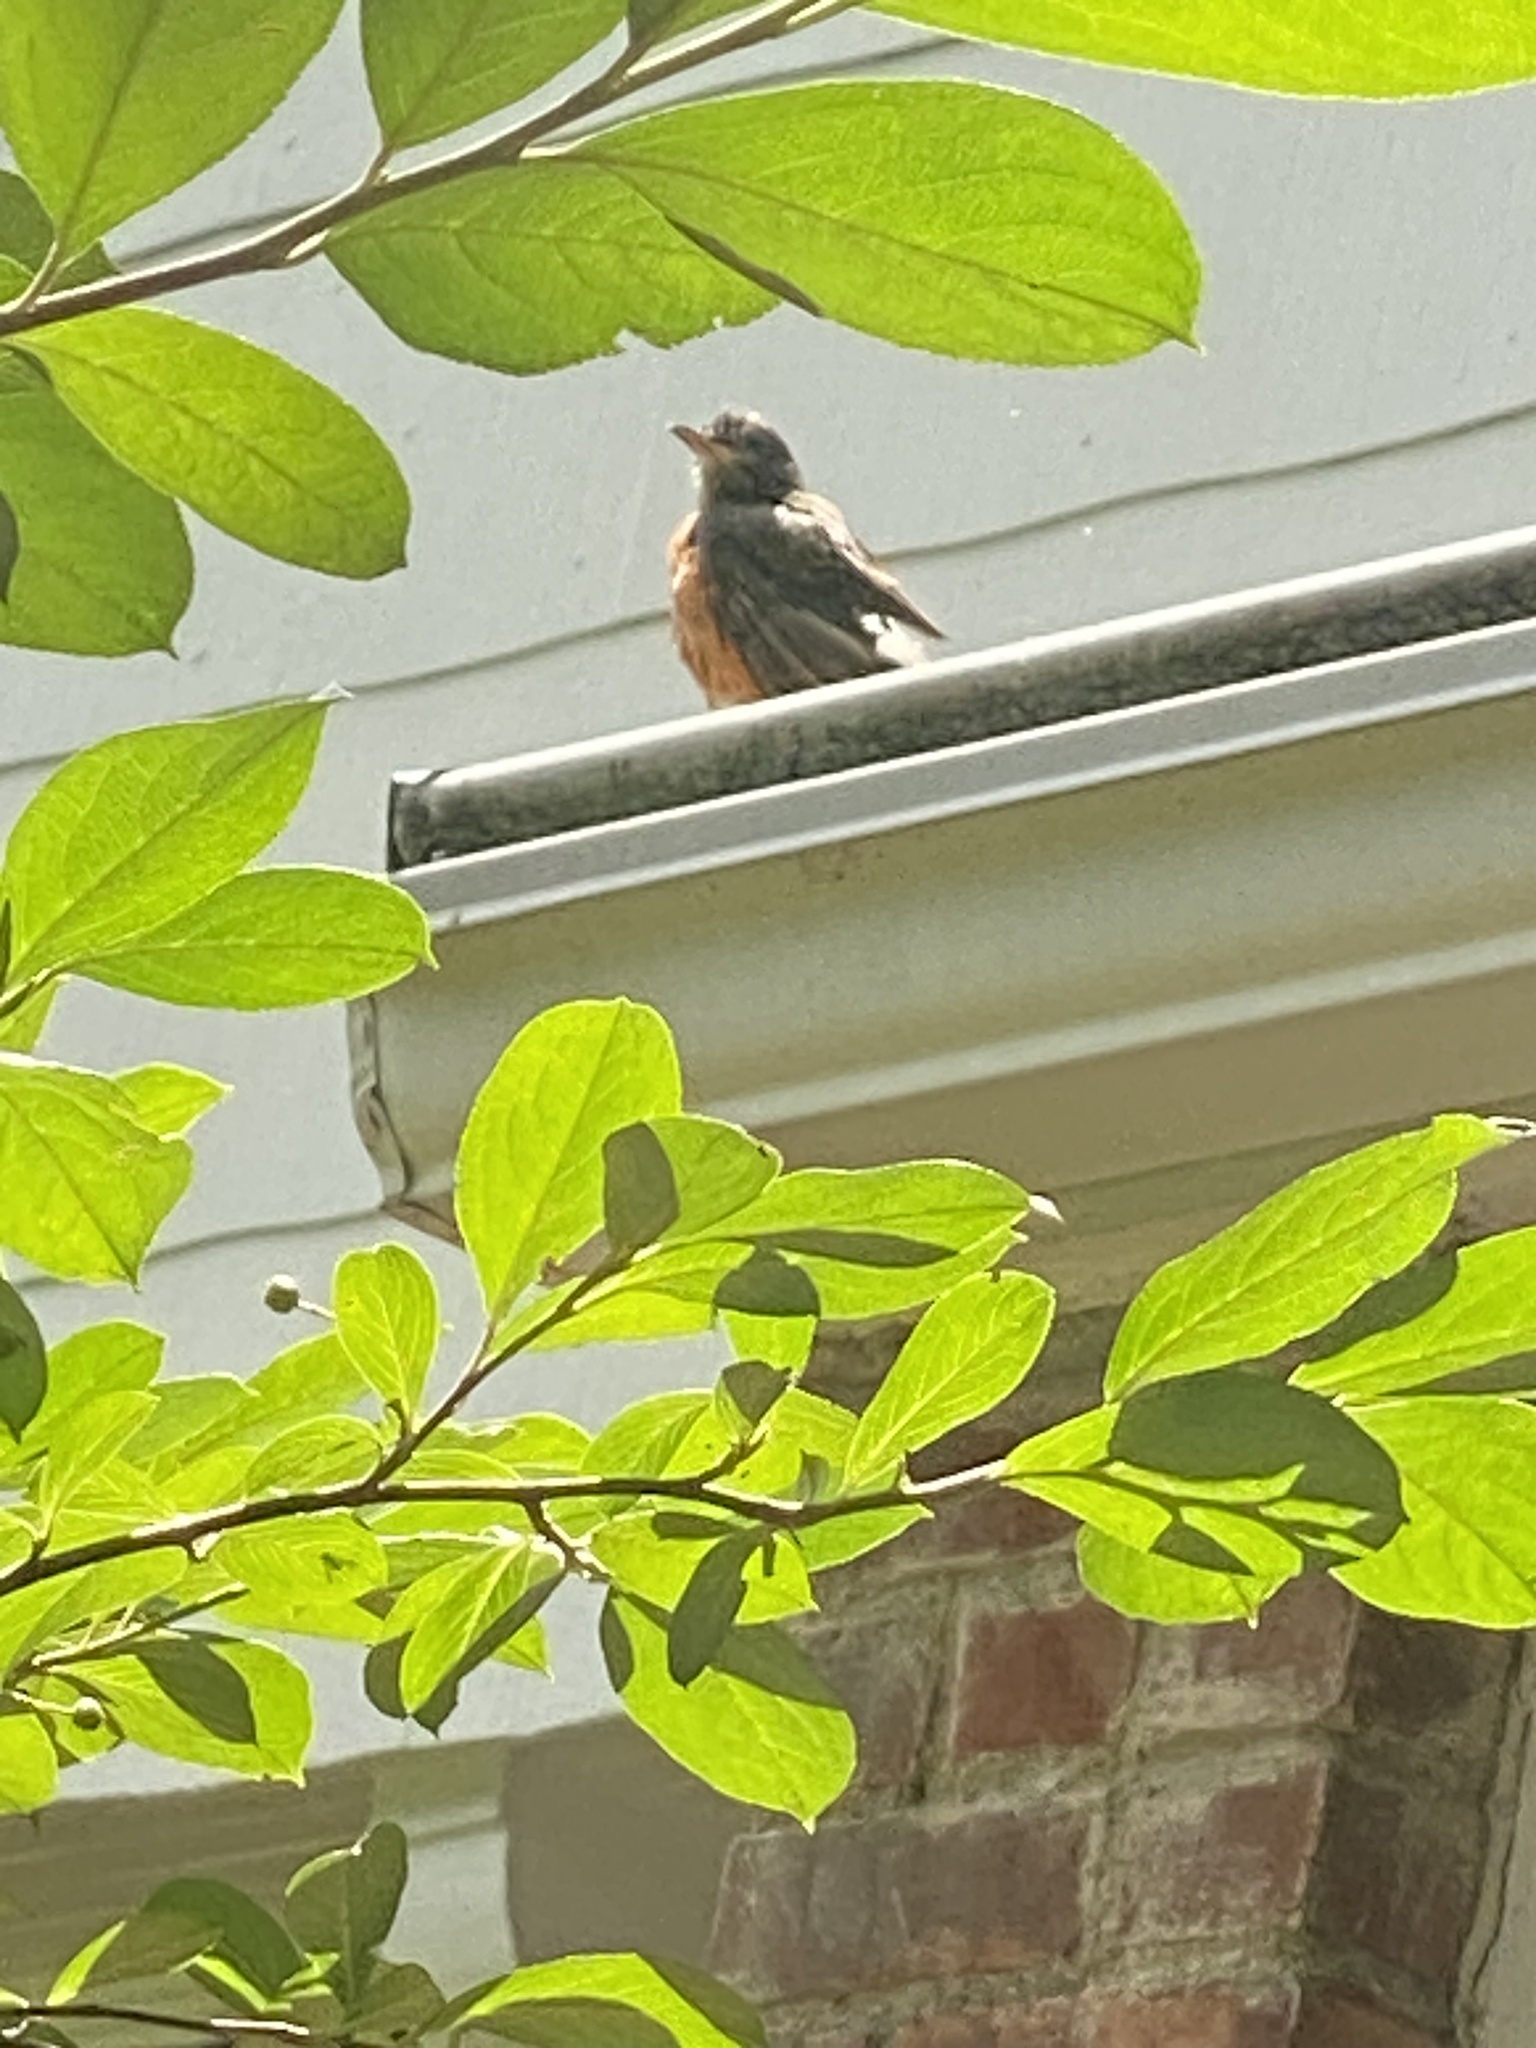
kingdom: Animalia
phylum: Chordata
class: Aves
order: Passeriformes
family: Turdidae
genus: Turdus
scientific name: Turdus migratorius
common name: American robin
